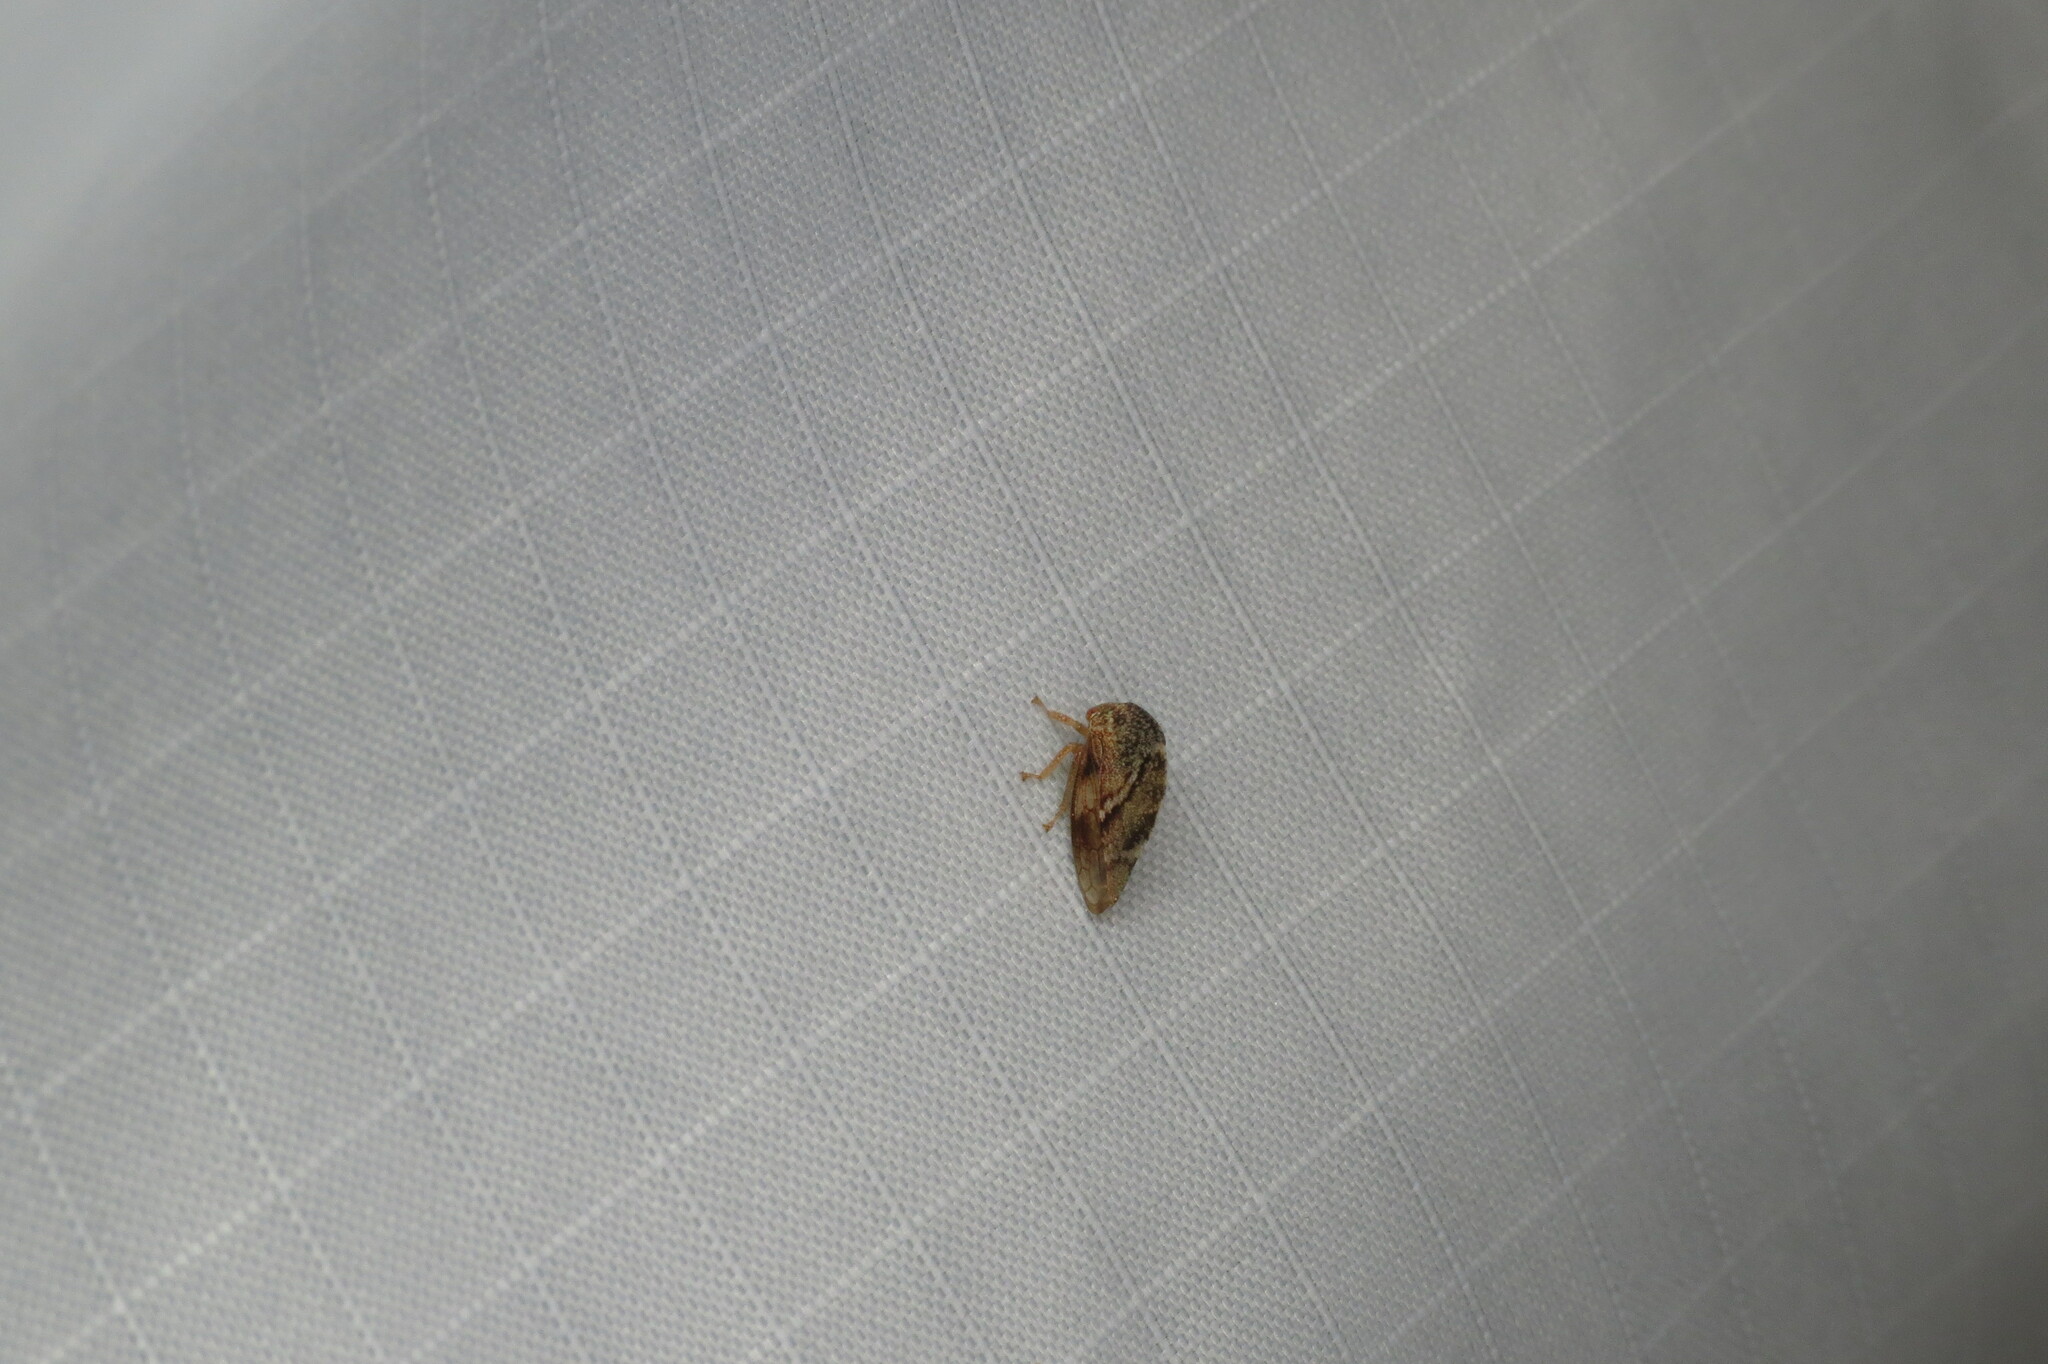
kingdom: Animalia
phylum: Arthropoda
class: Insecta
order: Hemiptera
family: Membracidae
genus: Cyrtolobus
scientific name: Cyrtolobus fuliginosa
